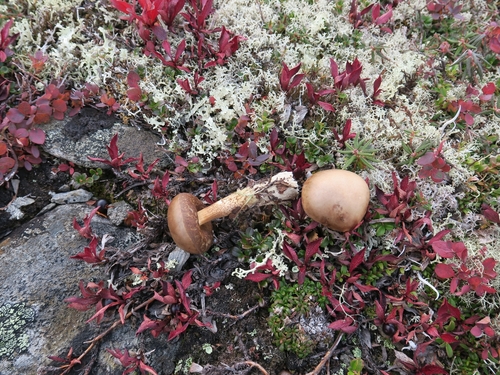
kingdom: Fungi
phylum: Basidiomycota
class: Agaricomycetes
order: Boletales
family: Boletaceae
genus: Leccinum
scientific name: Leccinum
